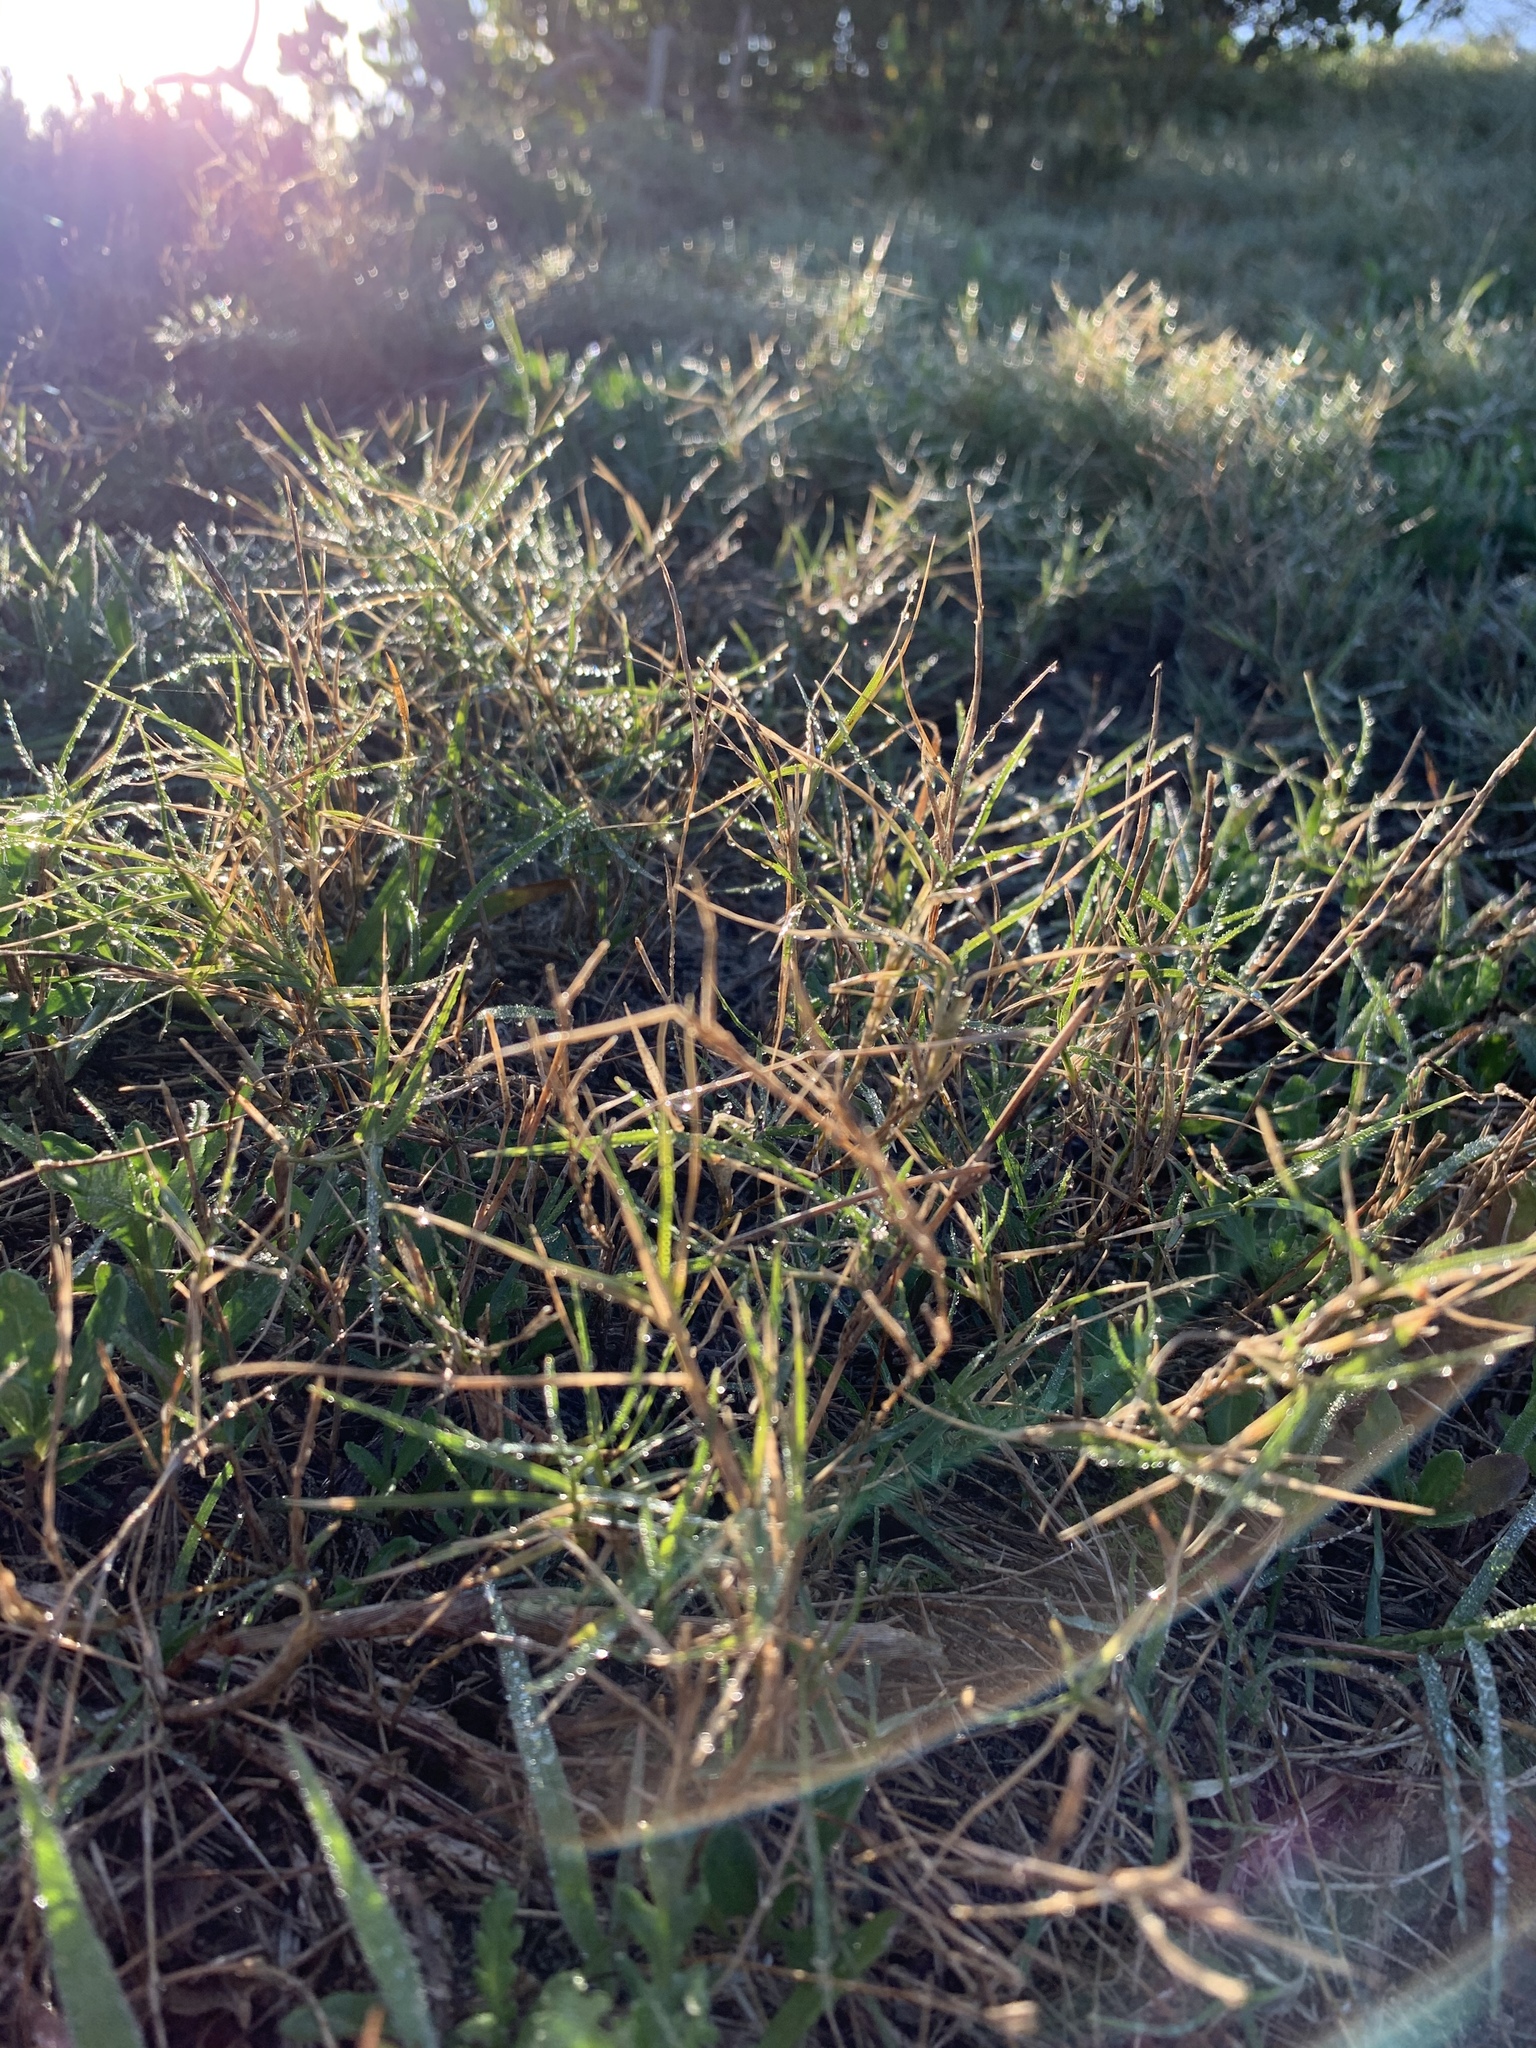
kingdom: Plantae
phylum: Tracheophyta
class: Liliopsida
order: Poales
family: Poaceae
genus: Cynodon
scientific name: Cynodon dactylon
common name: Bermuda grass
